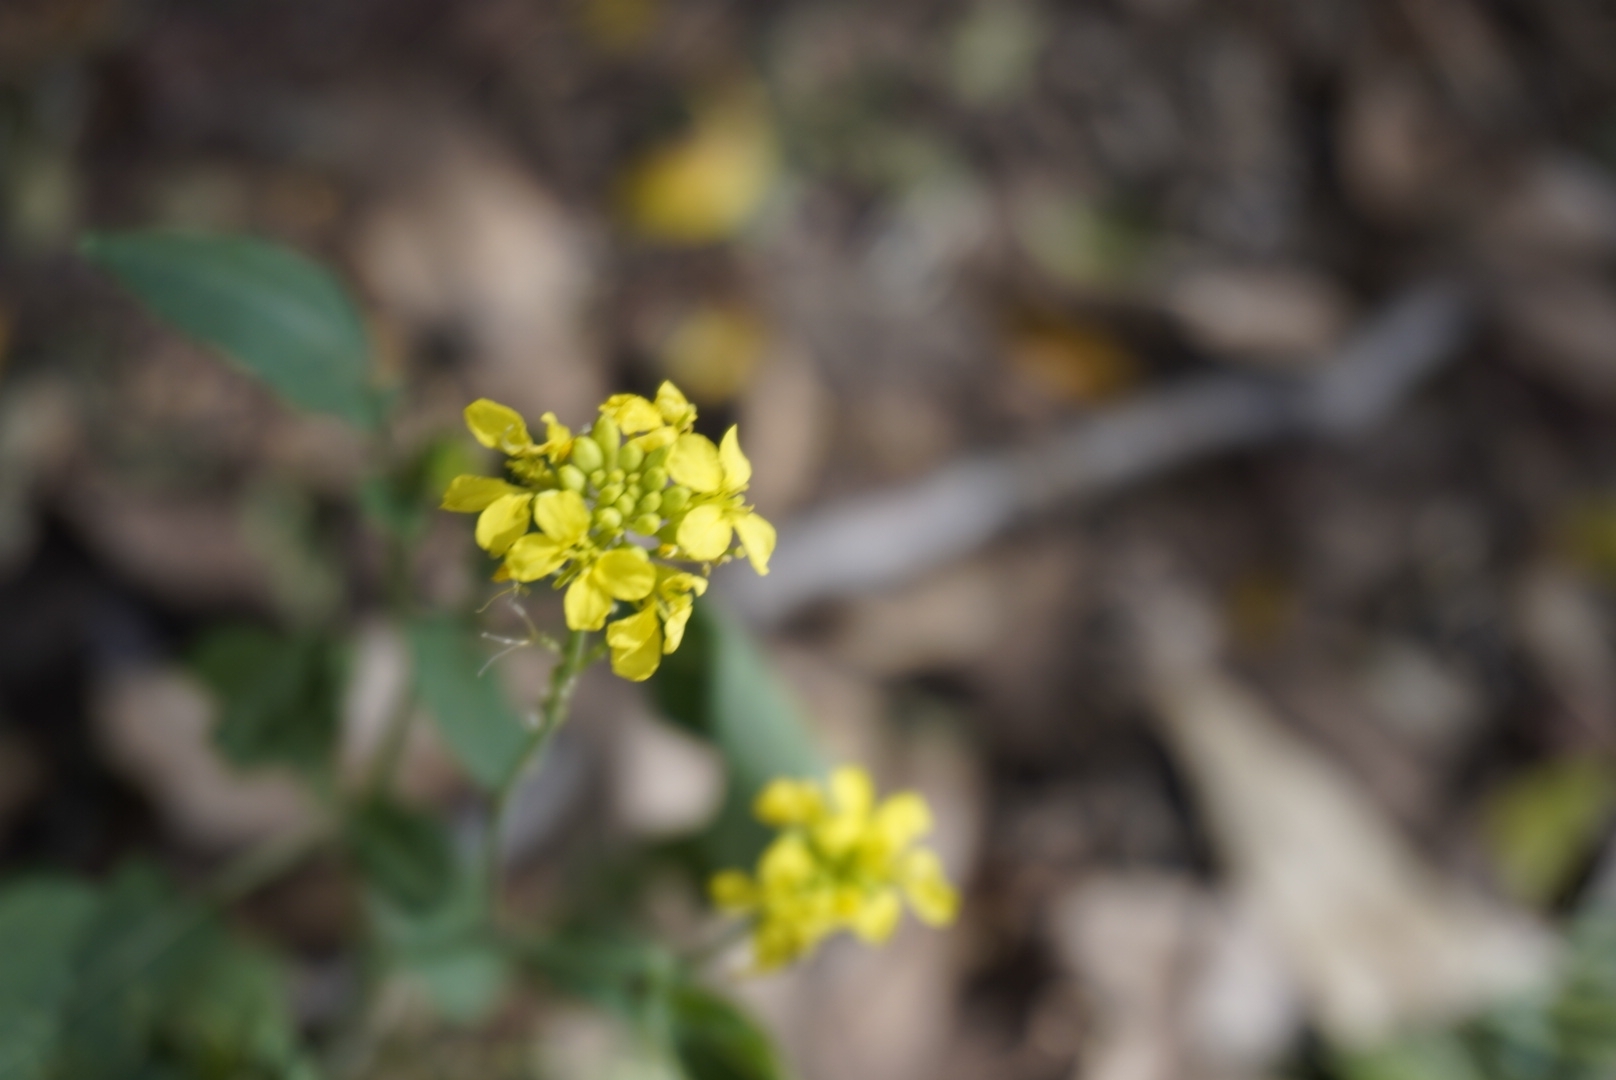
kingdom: Plantae
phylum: Tracheophyta
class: Magnoliopsida
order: Brassicales
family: Brassicaceae
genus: Brassica
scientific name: Brassica rapa
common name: Field mustard
